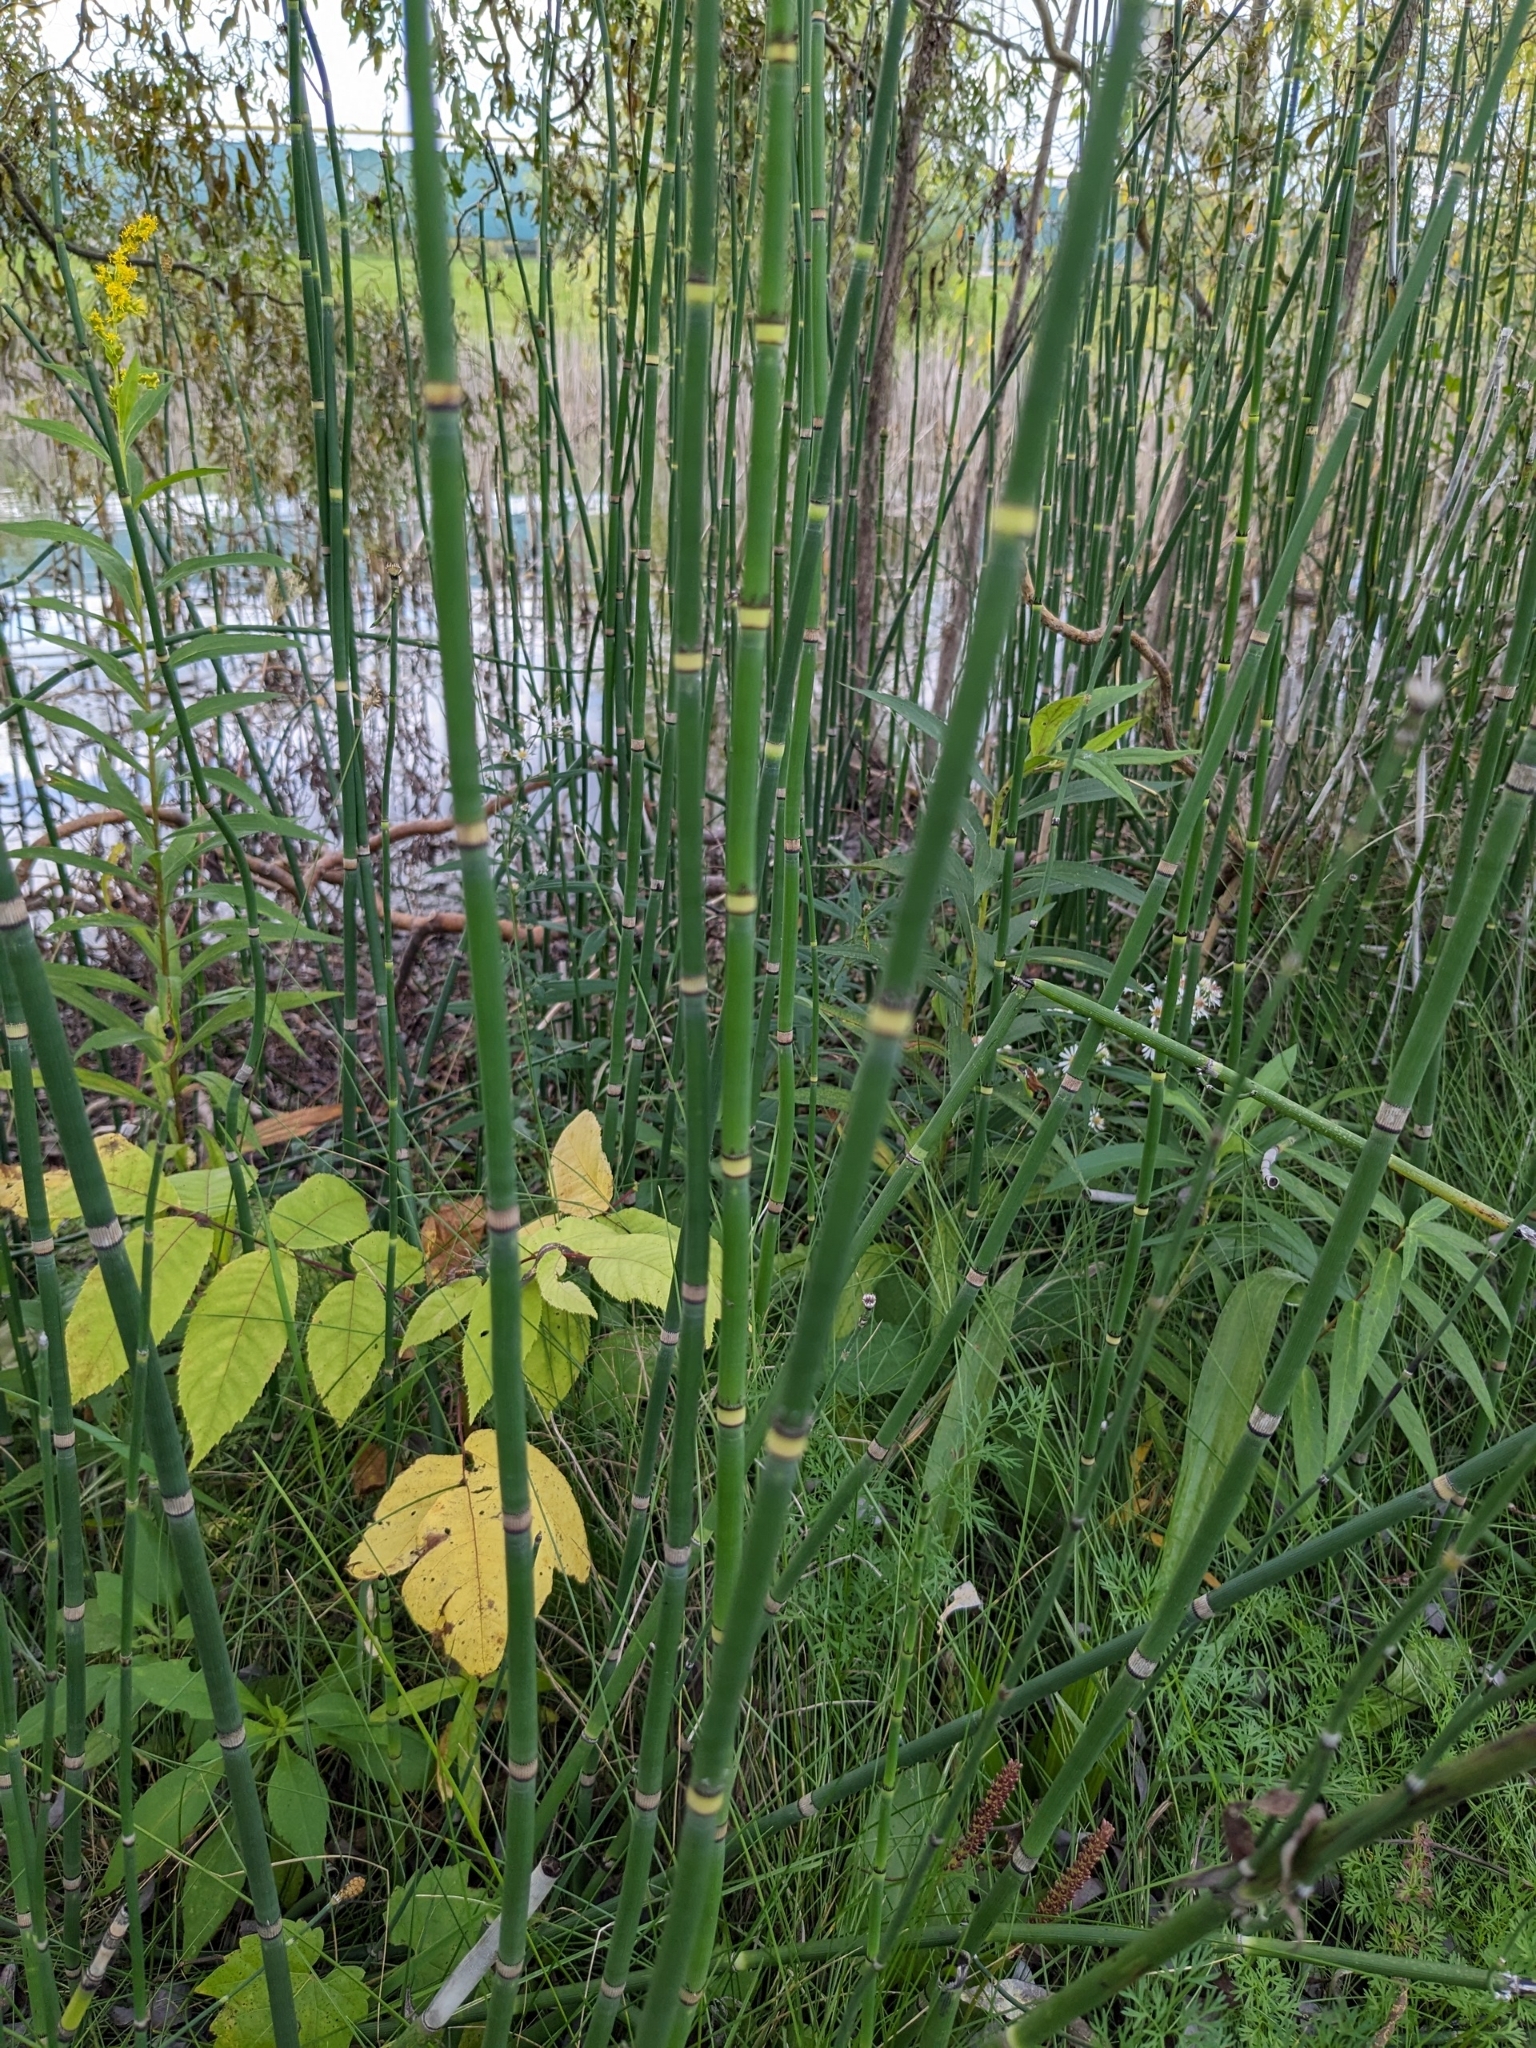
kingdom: Plantae
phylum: Tracheophyta
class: Polypodiopsida
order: Equisetales
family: Equisetaceae
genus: Equisetum
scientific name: Equisetum praealtum
